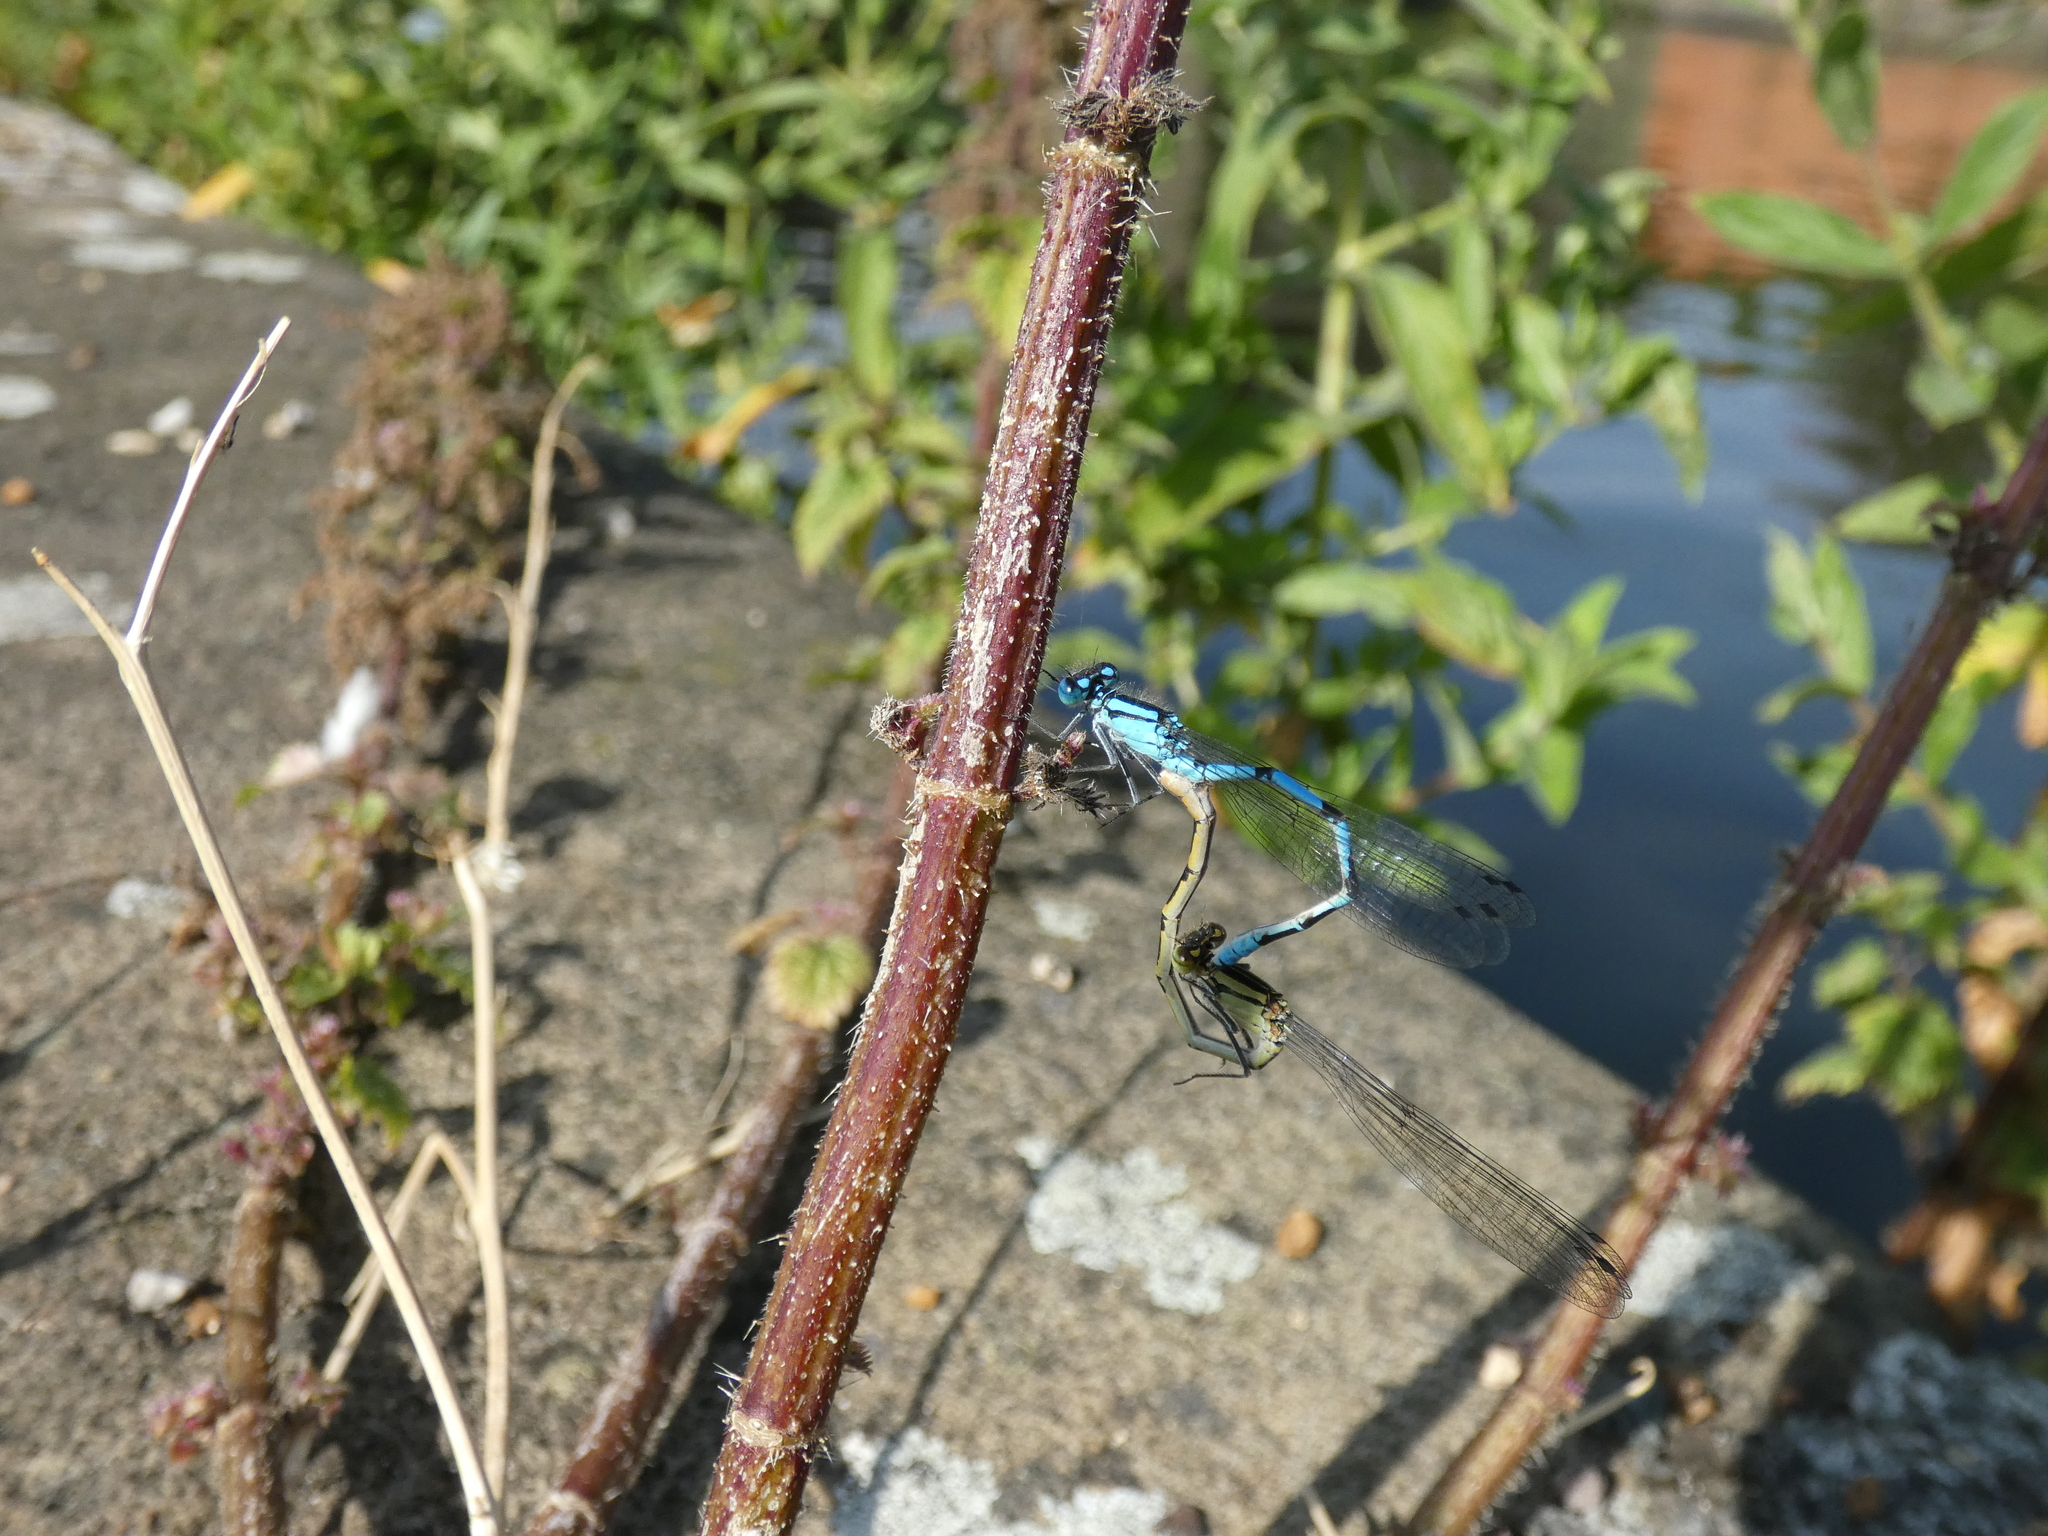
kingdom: Animalia
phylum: Arthropoda
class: Insecta
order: Odonata
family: Coenagrionidae
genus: Enallagma
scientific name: Enallagma cyathigerum
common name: Common blue damselfly
